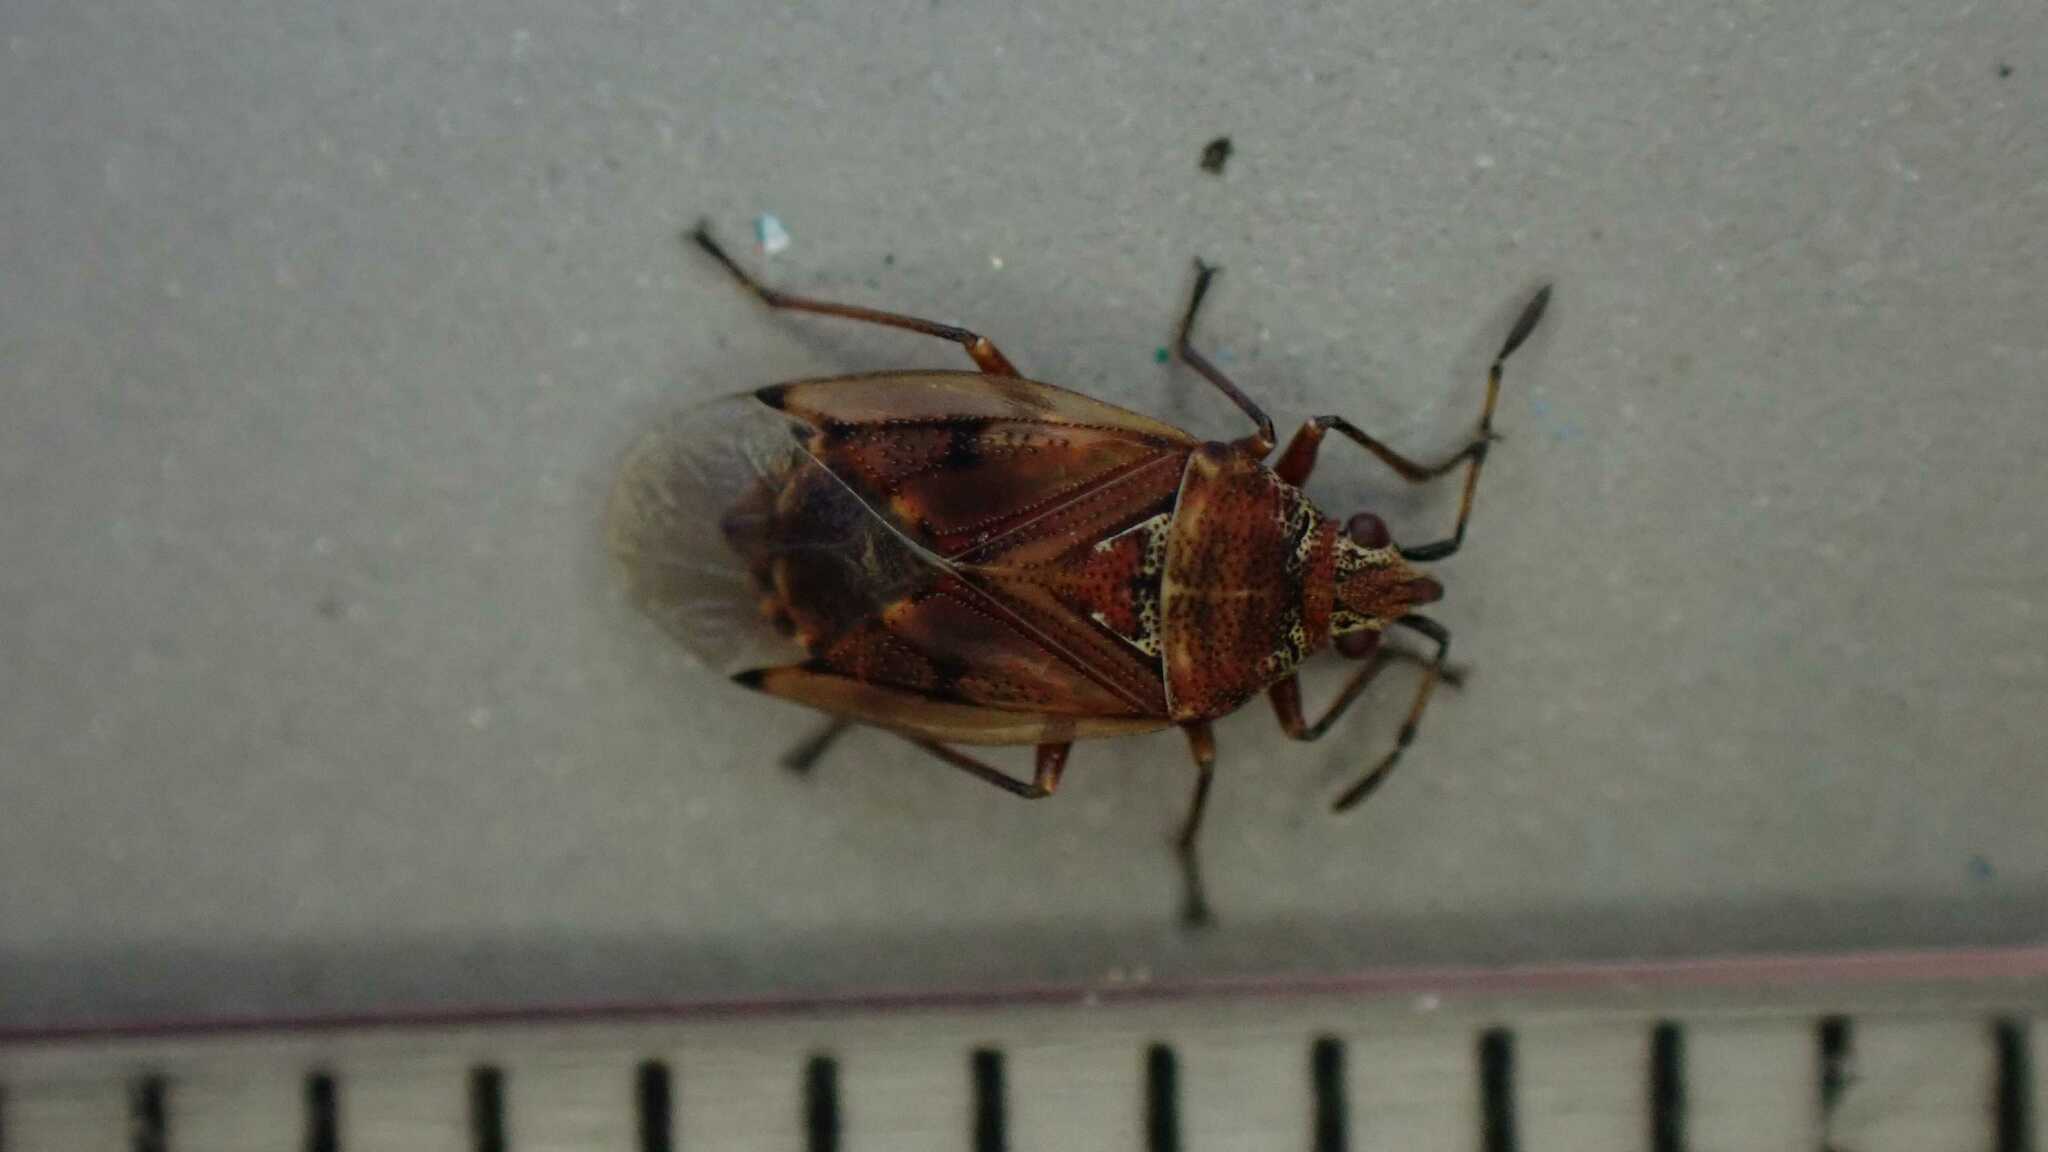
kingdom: Animalia
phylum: Arthropoda
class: Insecta
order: Hemiptera
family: Lygaeidae
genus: Kleidocerys
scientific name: Kleidocerys resedae
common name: Birch catkin bug
